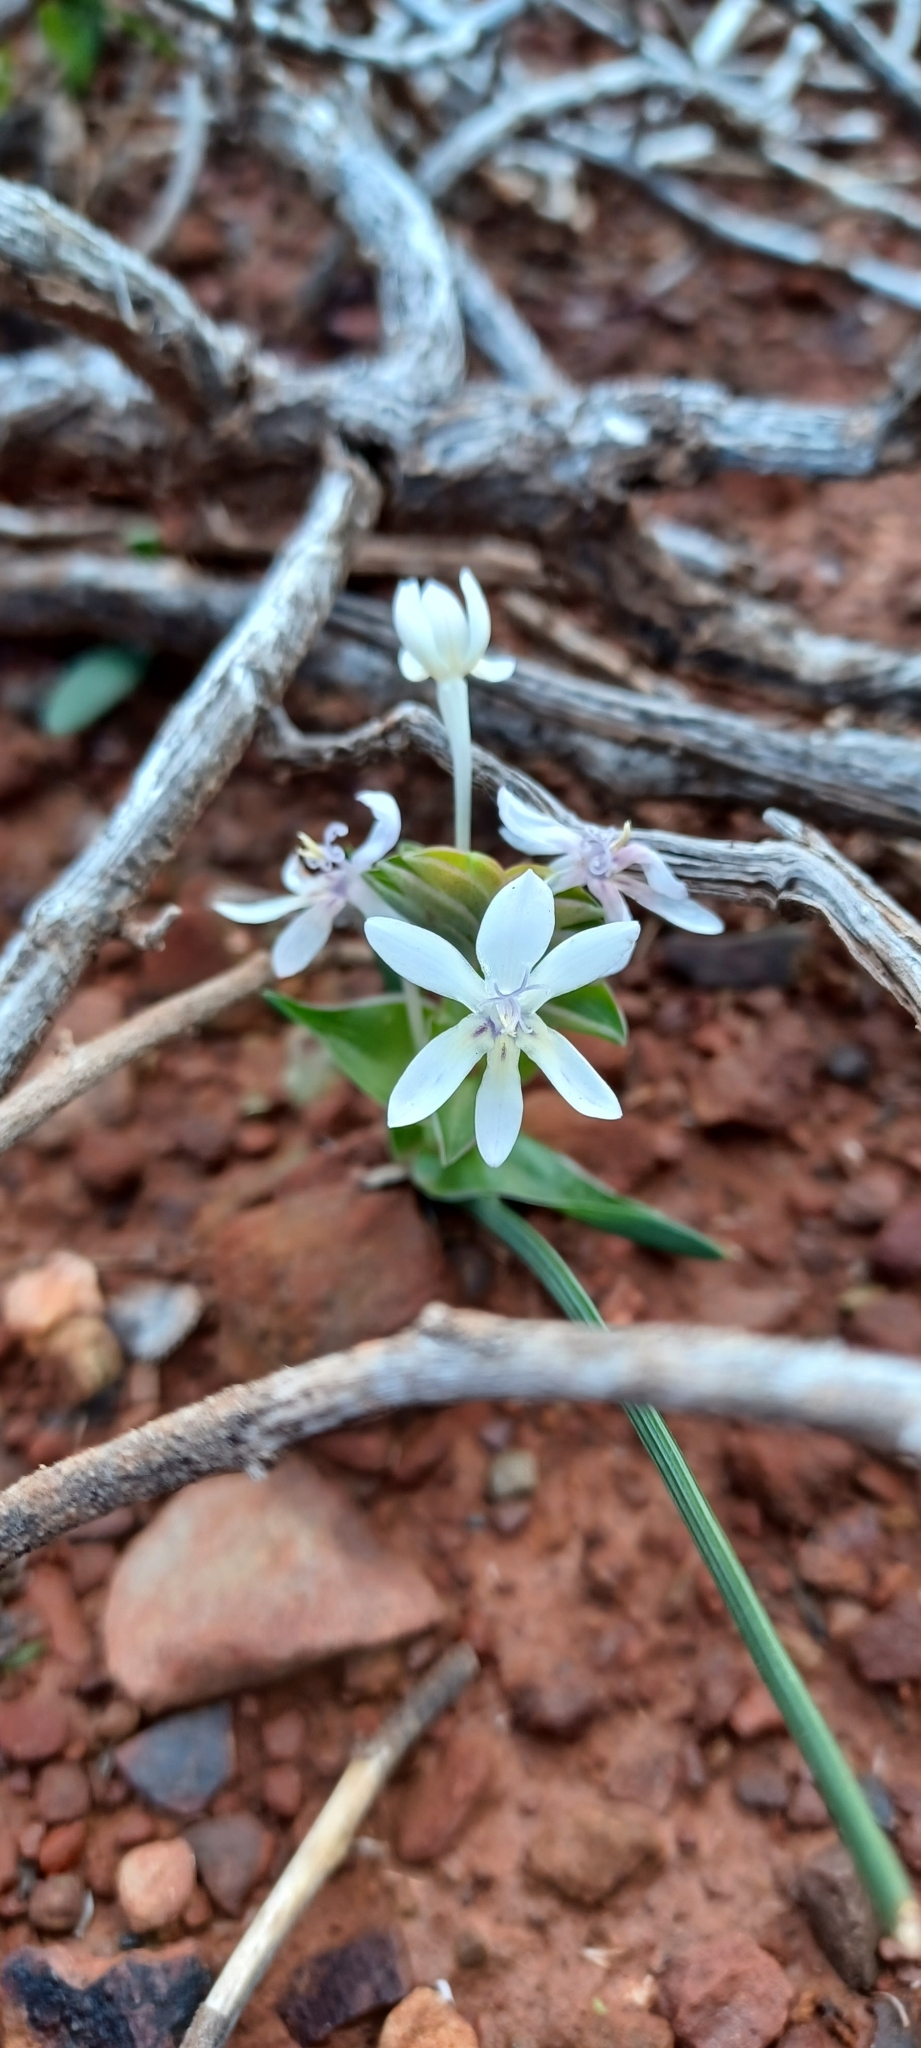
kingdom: Plantae
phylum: Tracheophyta
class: Liliopsida
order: Asparagales
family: Iridaceae
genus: Lapeirousia
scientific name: Lapeirousia pyramidalis
